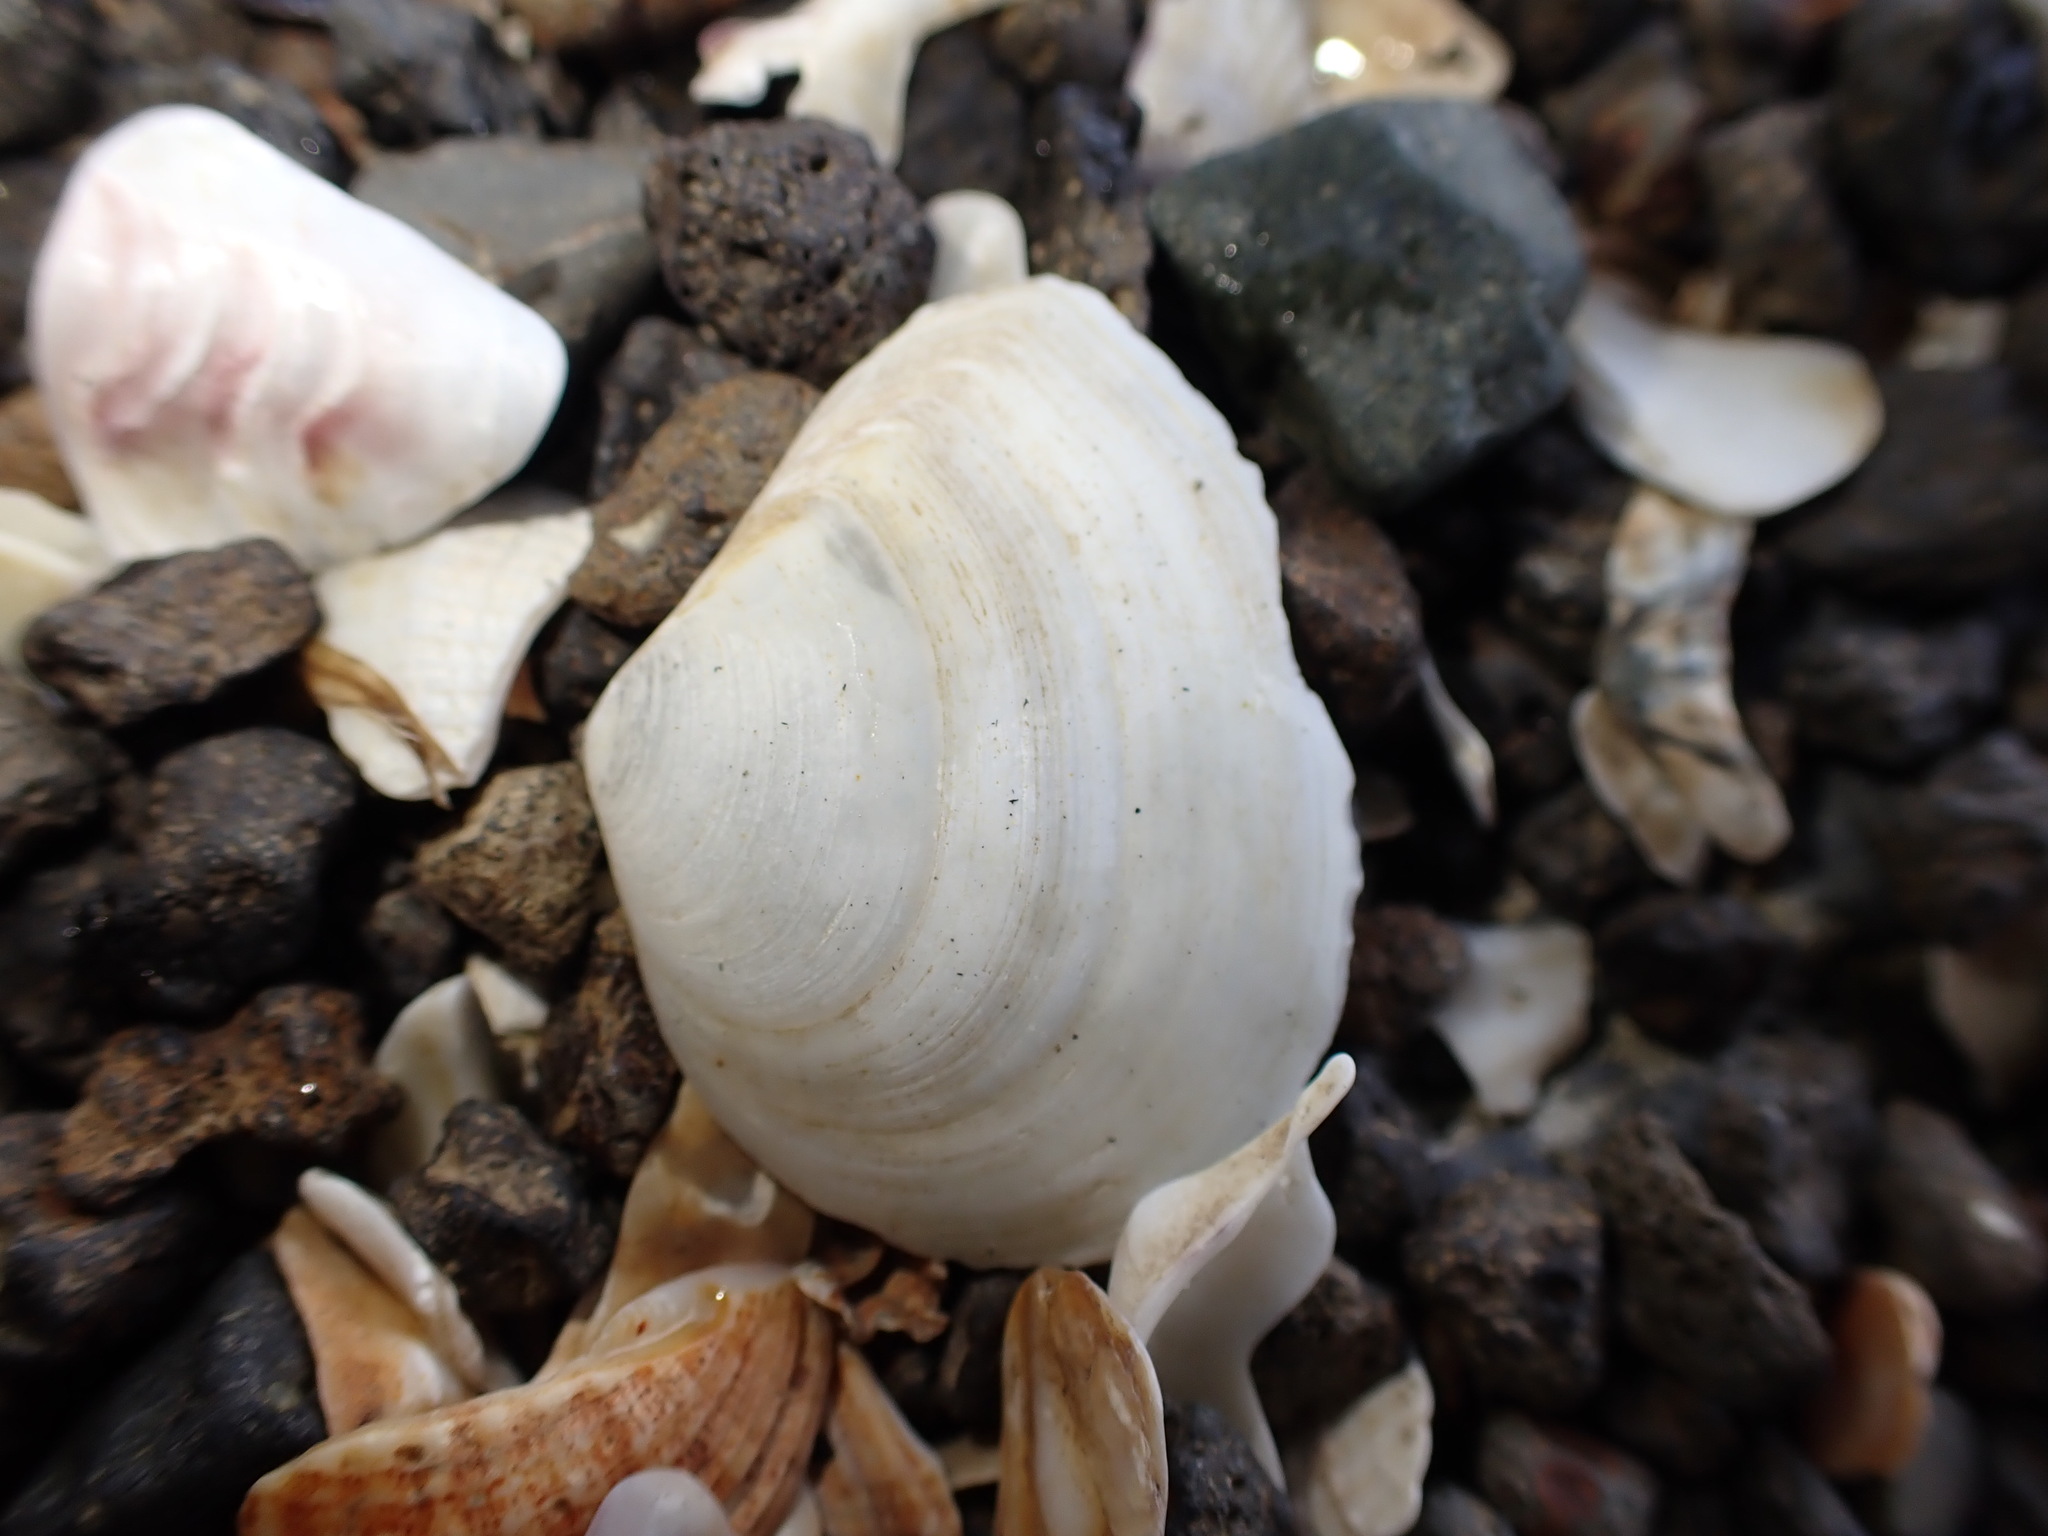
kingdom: Animalia
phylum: Mollusca
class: Bivalvia
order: Cardiida
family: Tellinidae
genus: Macomona
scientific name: Macomona liliana
